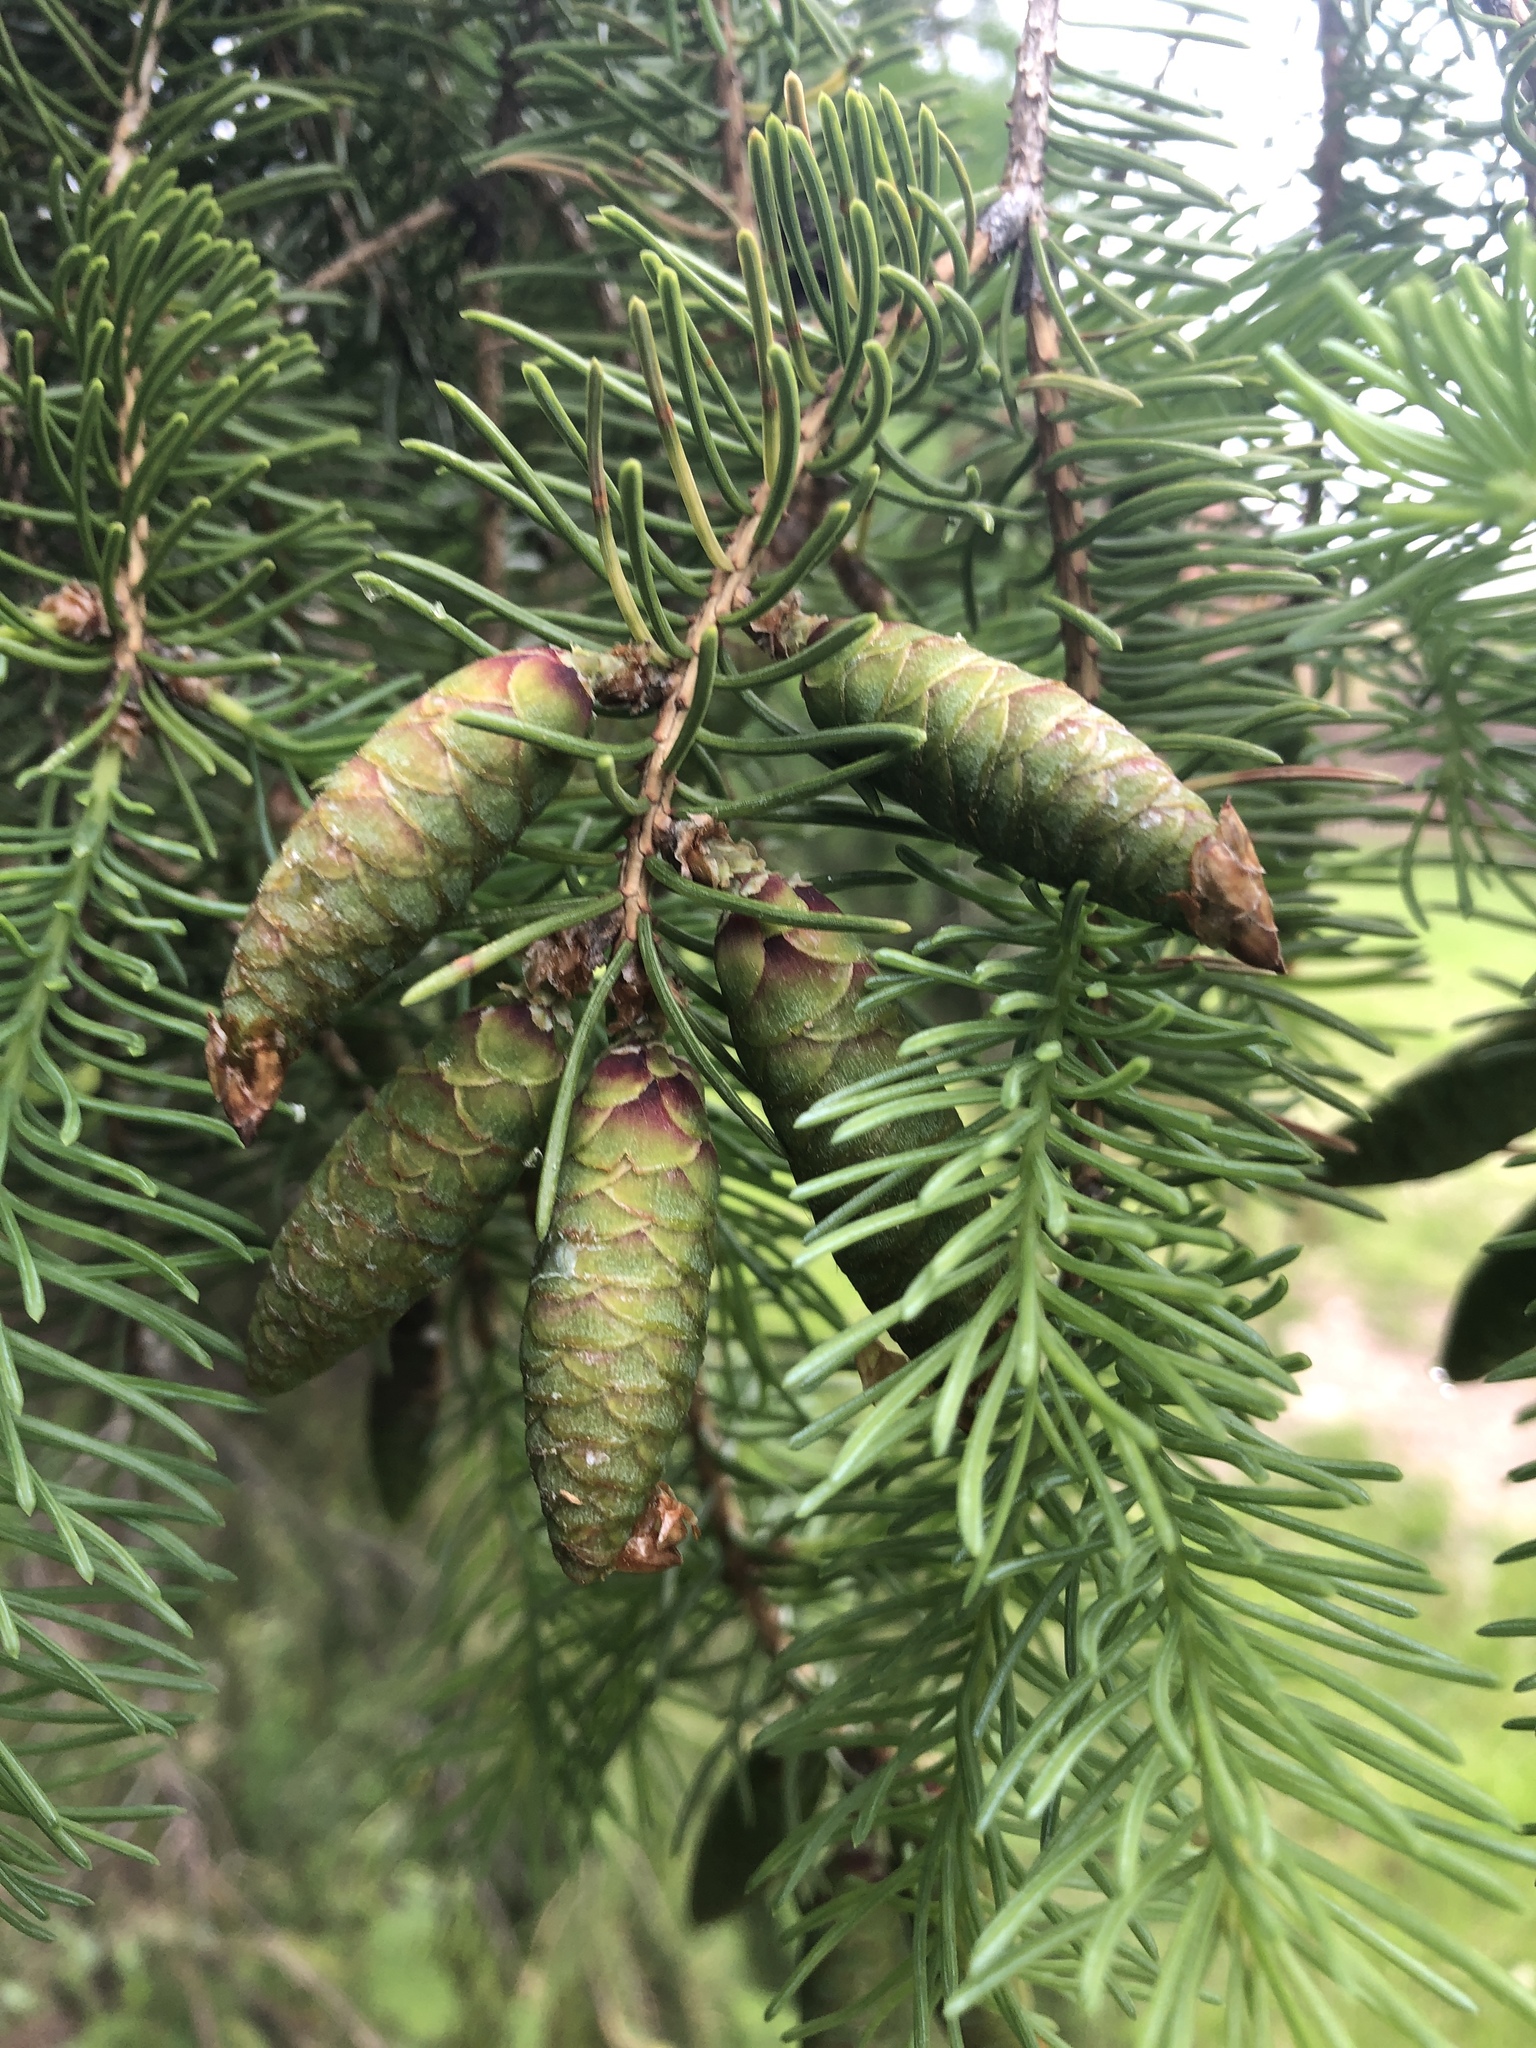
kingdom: Plantae
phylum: Tracheophyta
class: Pinopsida
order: Pinales
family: Pinaceae
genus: Picea
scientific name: Picea glauca
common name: White spruce
